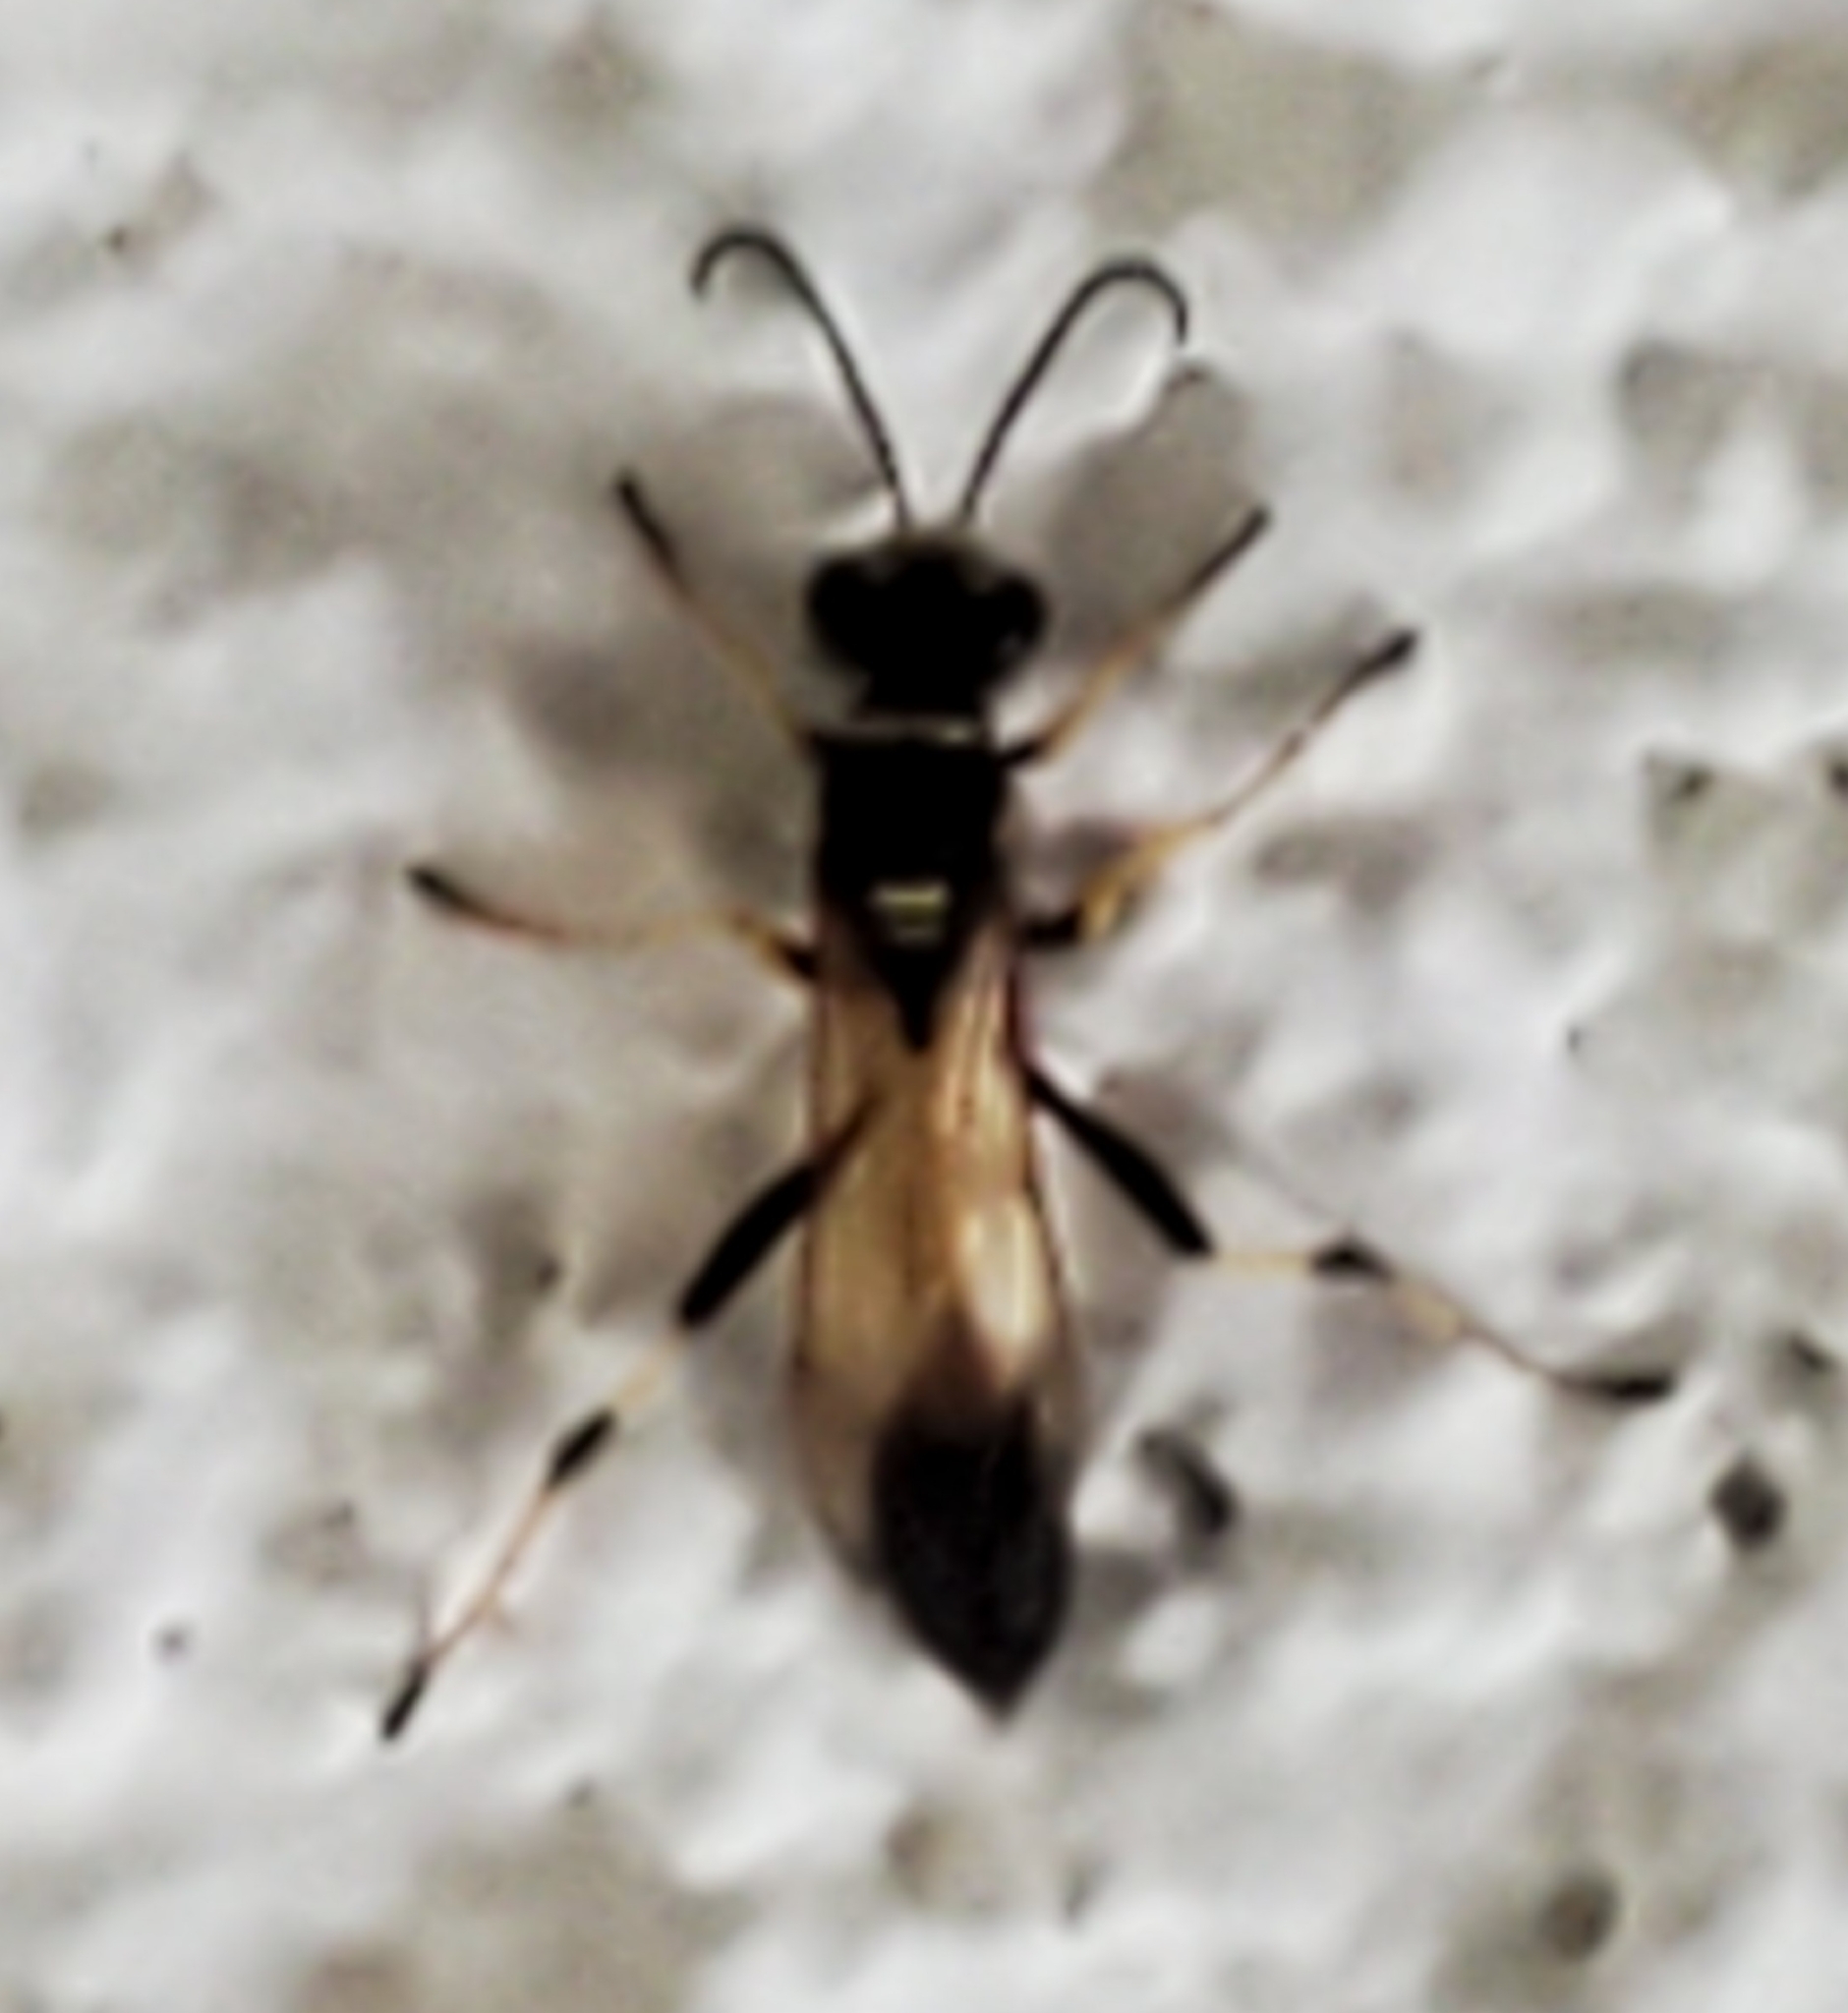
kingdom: Animalia
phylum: Arthropoda
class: Insecta
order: Hymenoptera
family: Sphecidae
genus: Sceliphron
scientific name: Sceliphron caementarium
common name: Mud dauber
